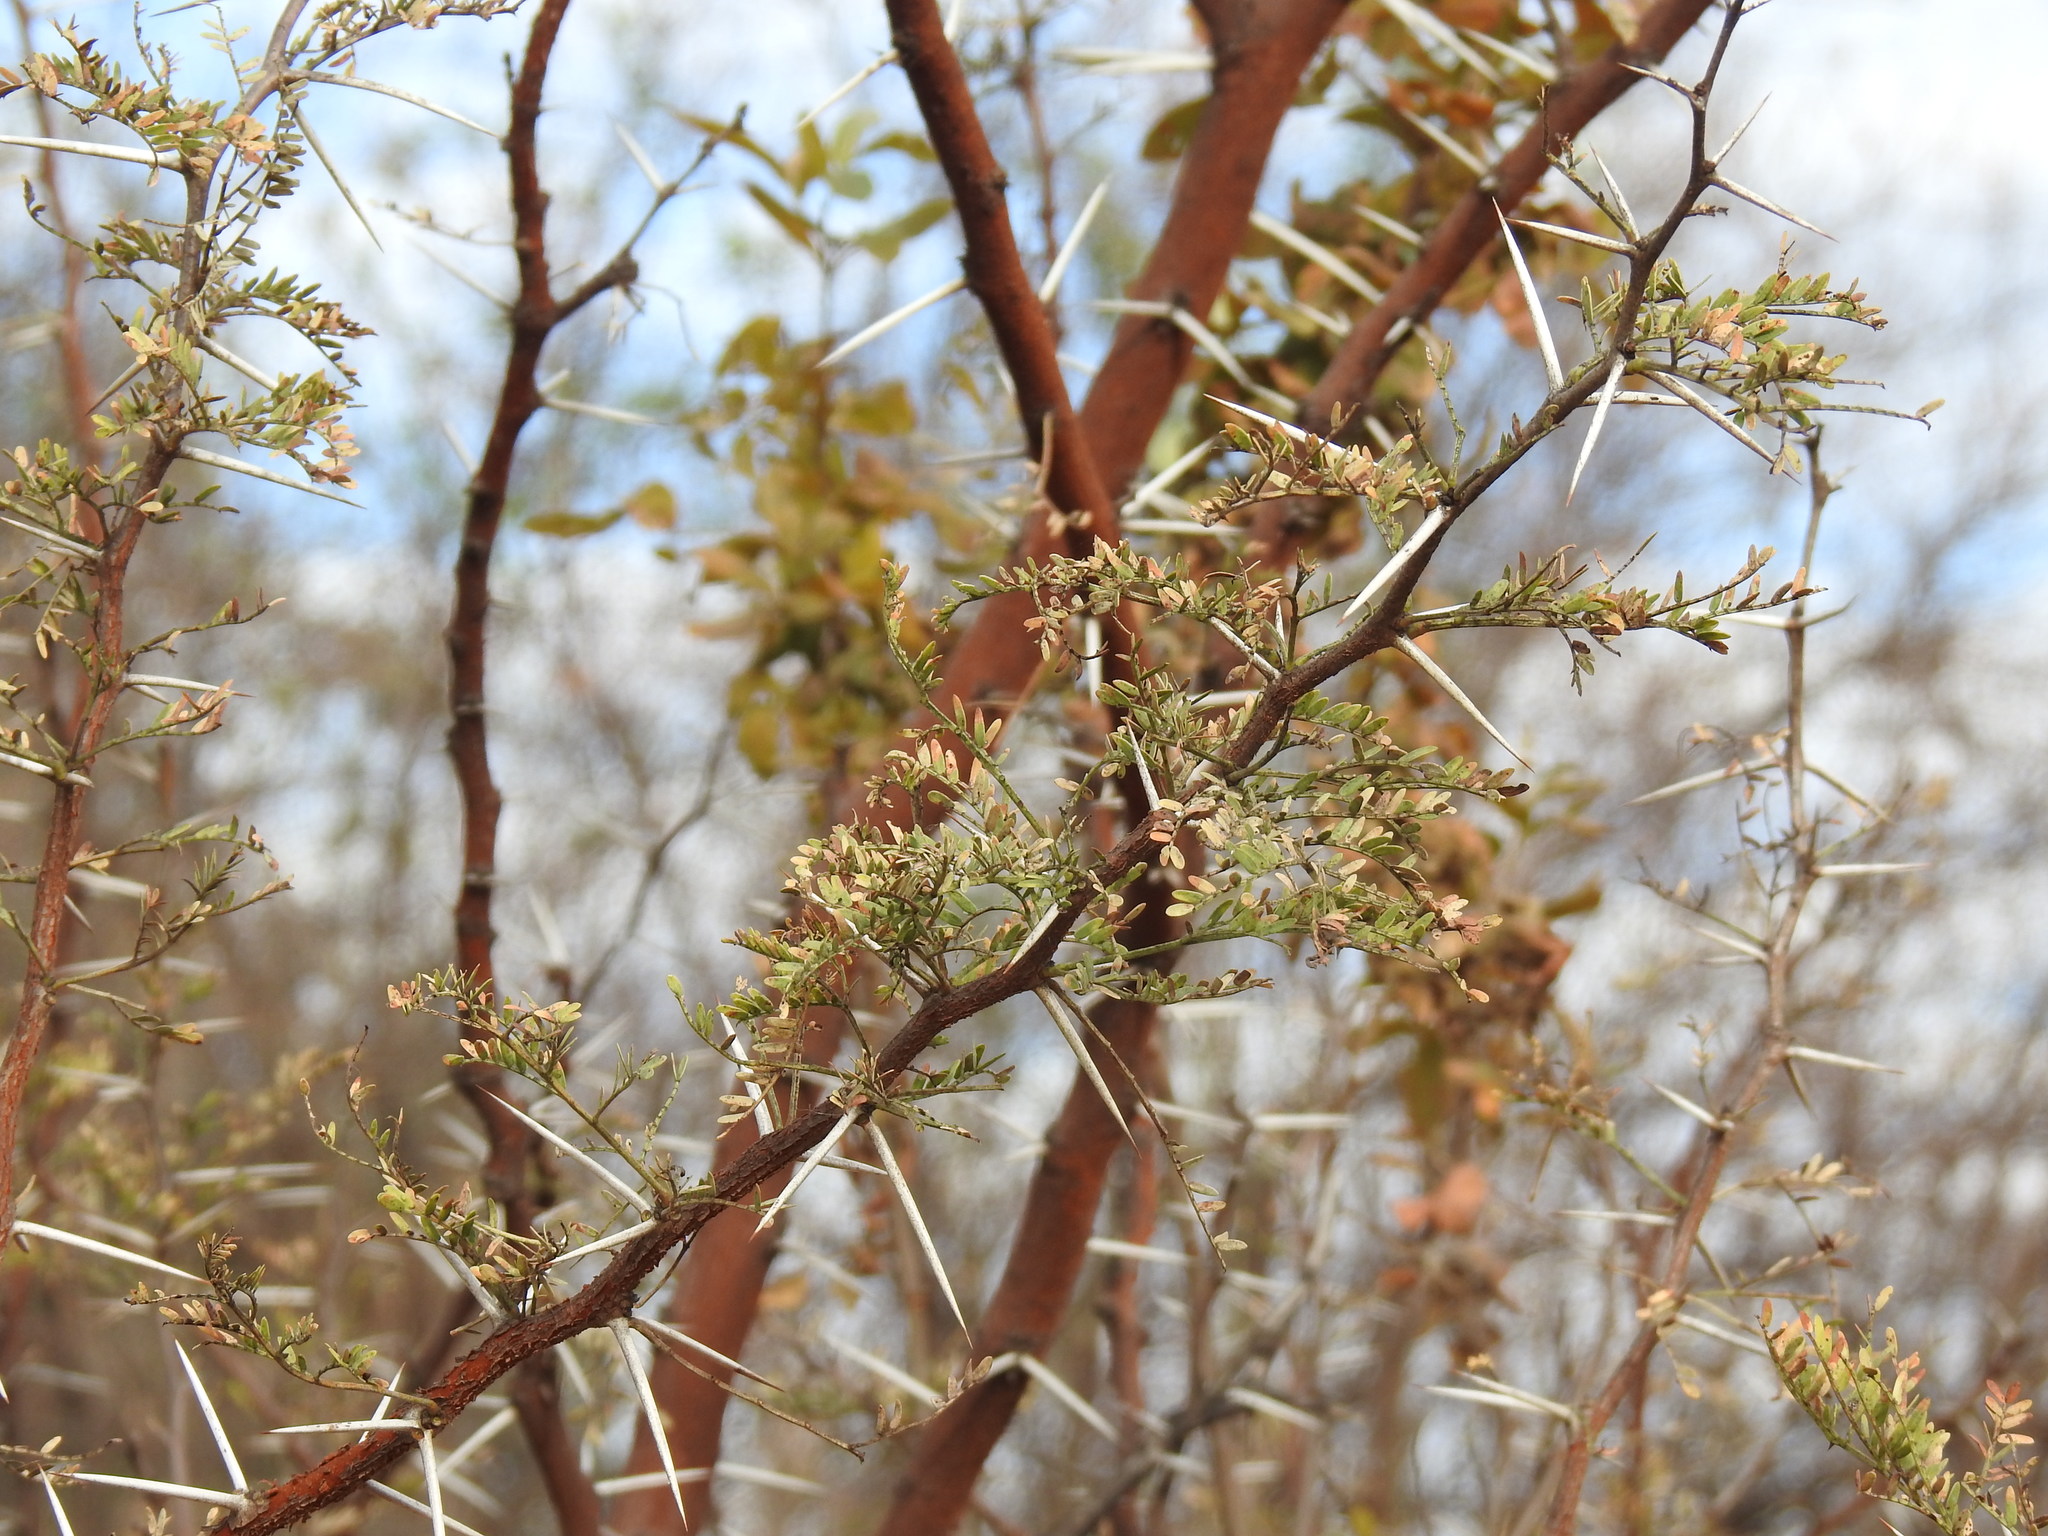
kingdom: Plantae
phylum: Tracheophyta
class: Magnoliopsida
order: Fabales
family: Fabaceae
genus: Vachellia
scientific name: Vachellia karroo
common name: Sweet thorn
